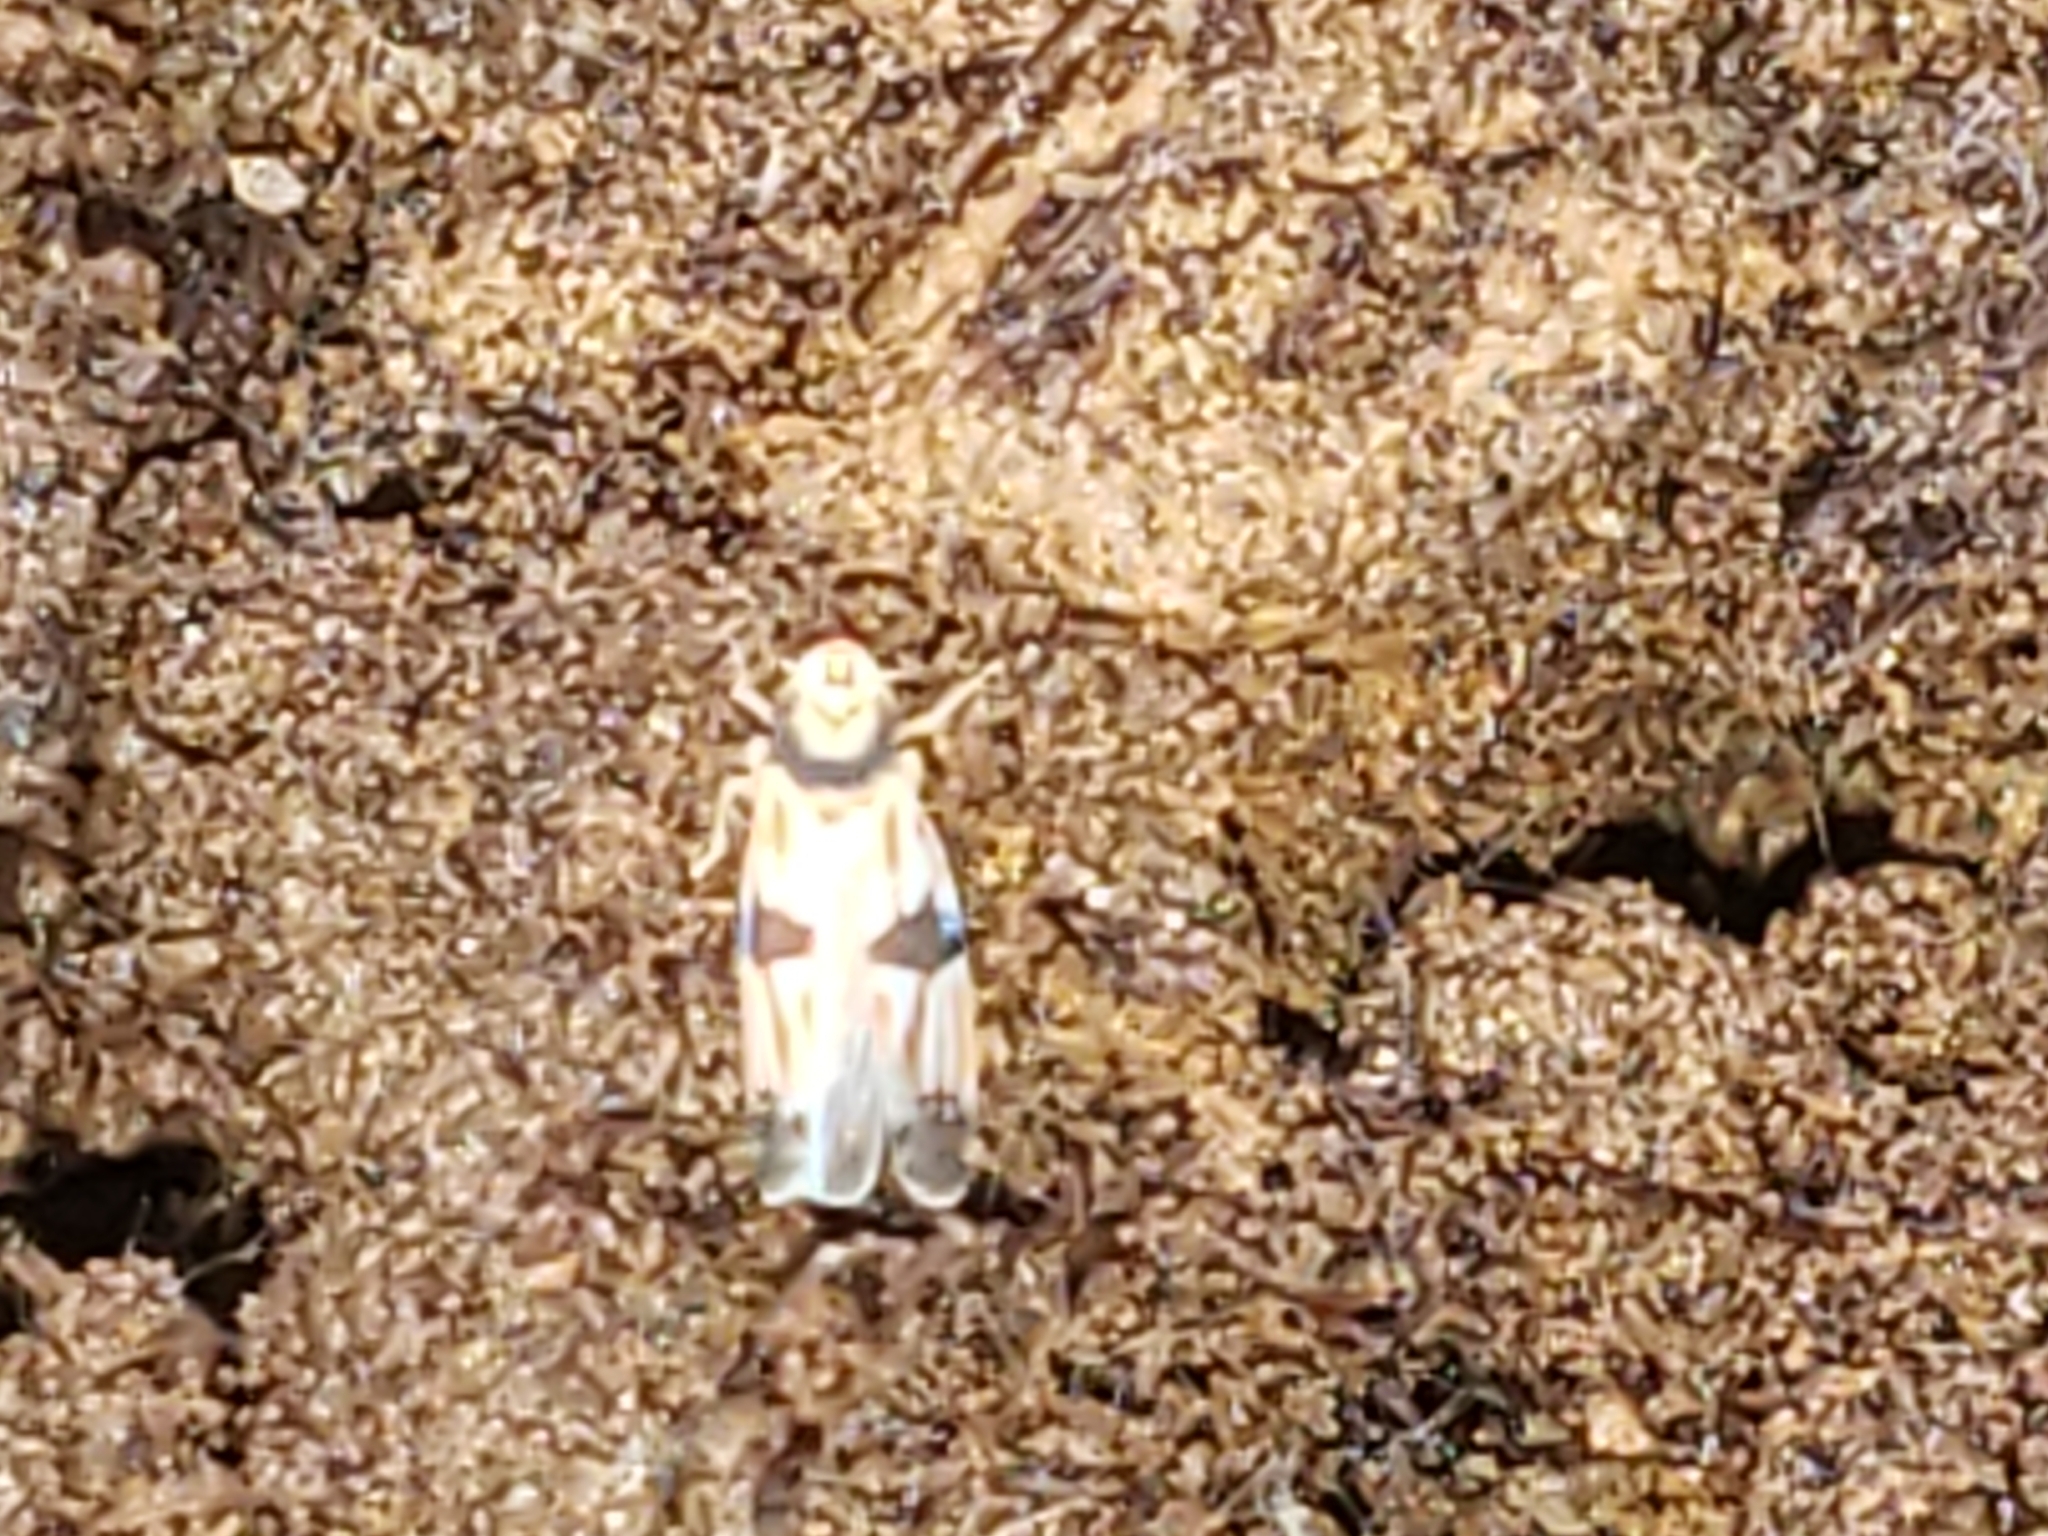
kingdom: Animalia
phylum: Arthropoda
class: Insecta
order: Hemiptera
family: Cicadellidae
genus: Erythroneura
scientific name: Erythroneura calycula
